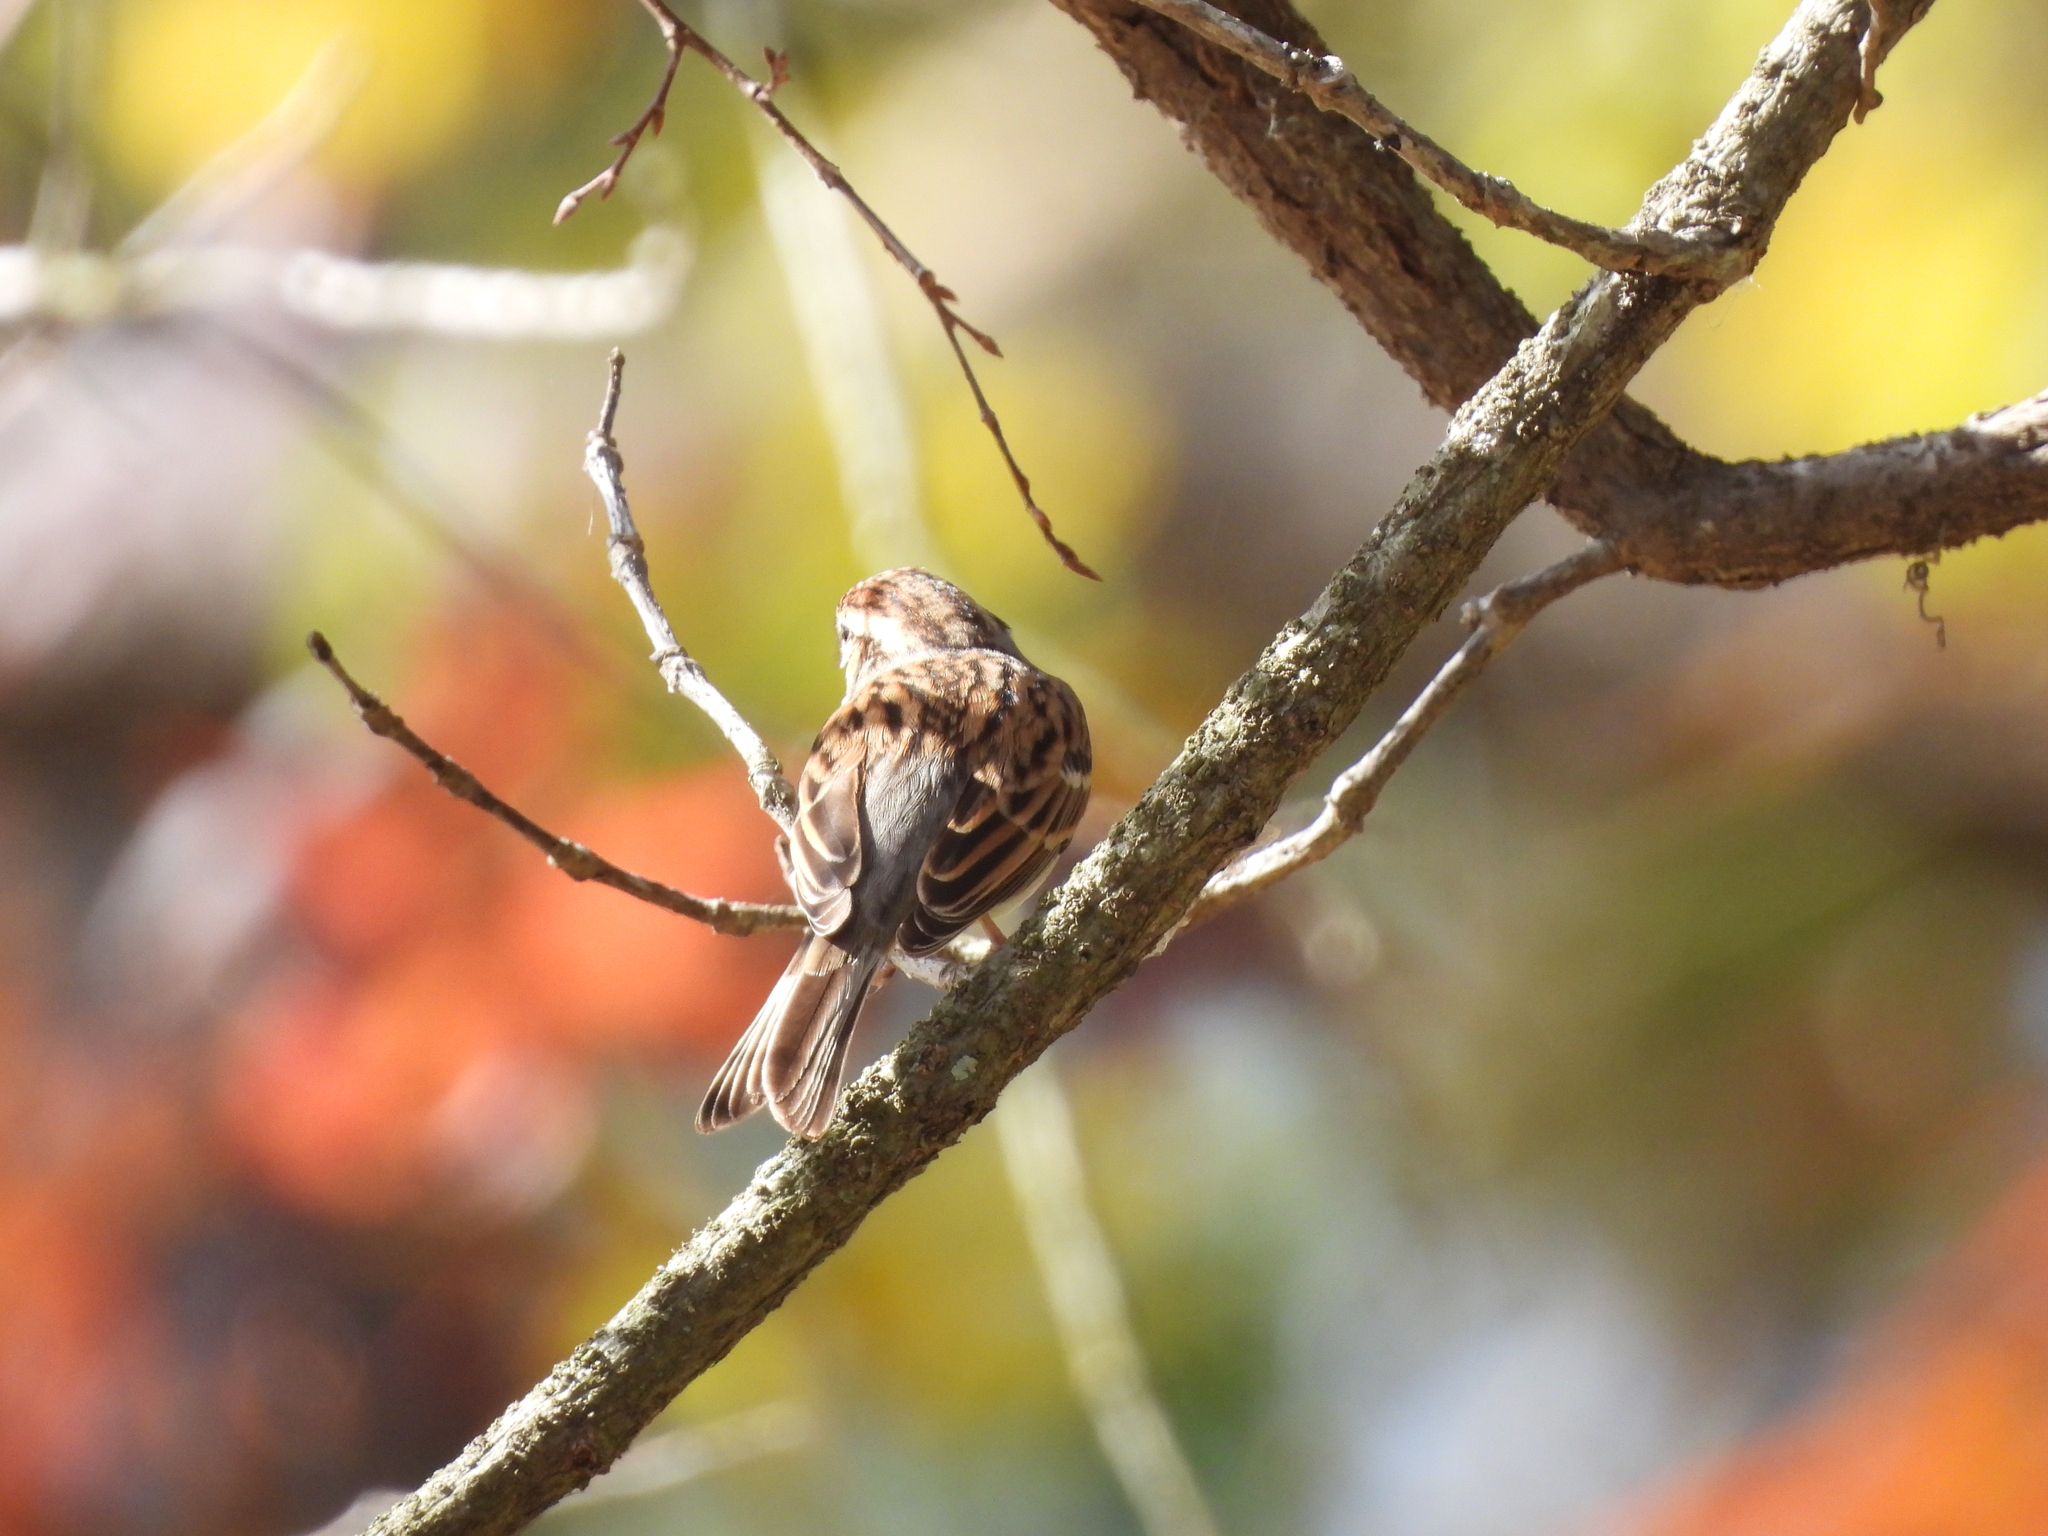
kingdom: Animalia
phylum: Chordata
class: Aves
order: Passeriformes
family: Passerellidae
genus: Spizella
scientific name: Spizella passerina
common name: Chipping sparrow
